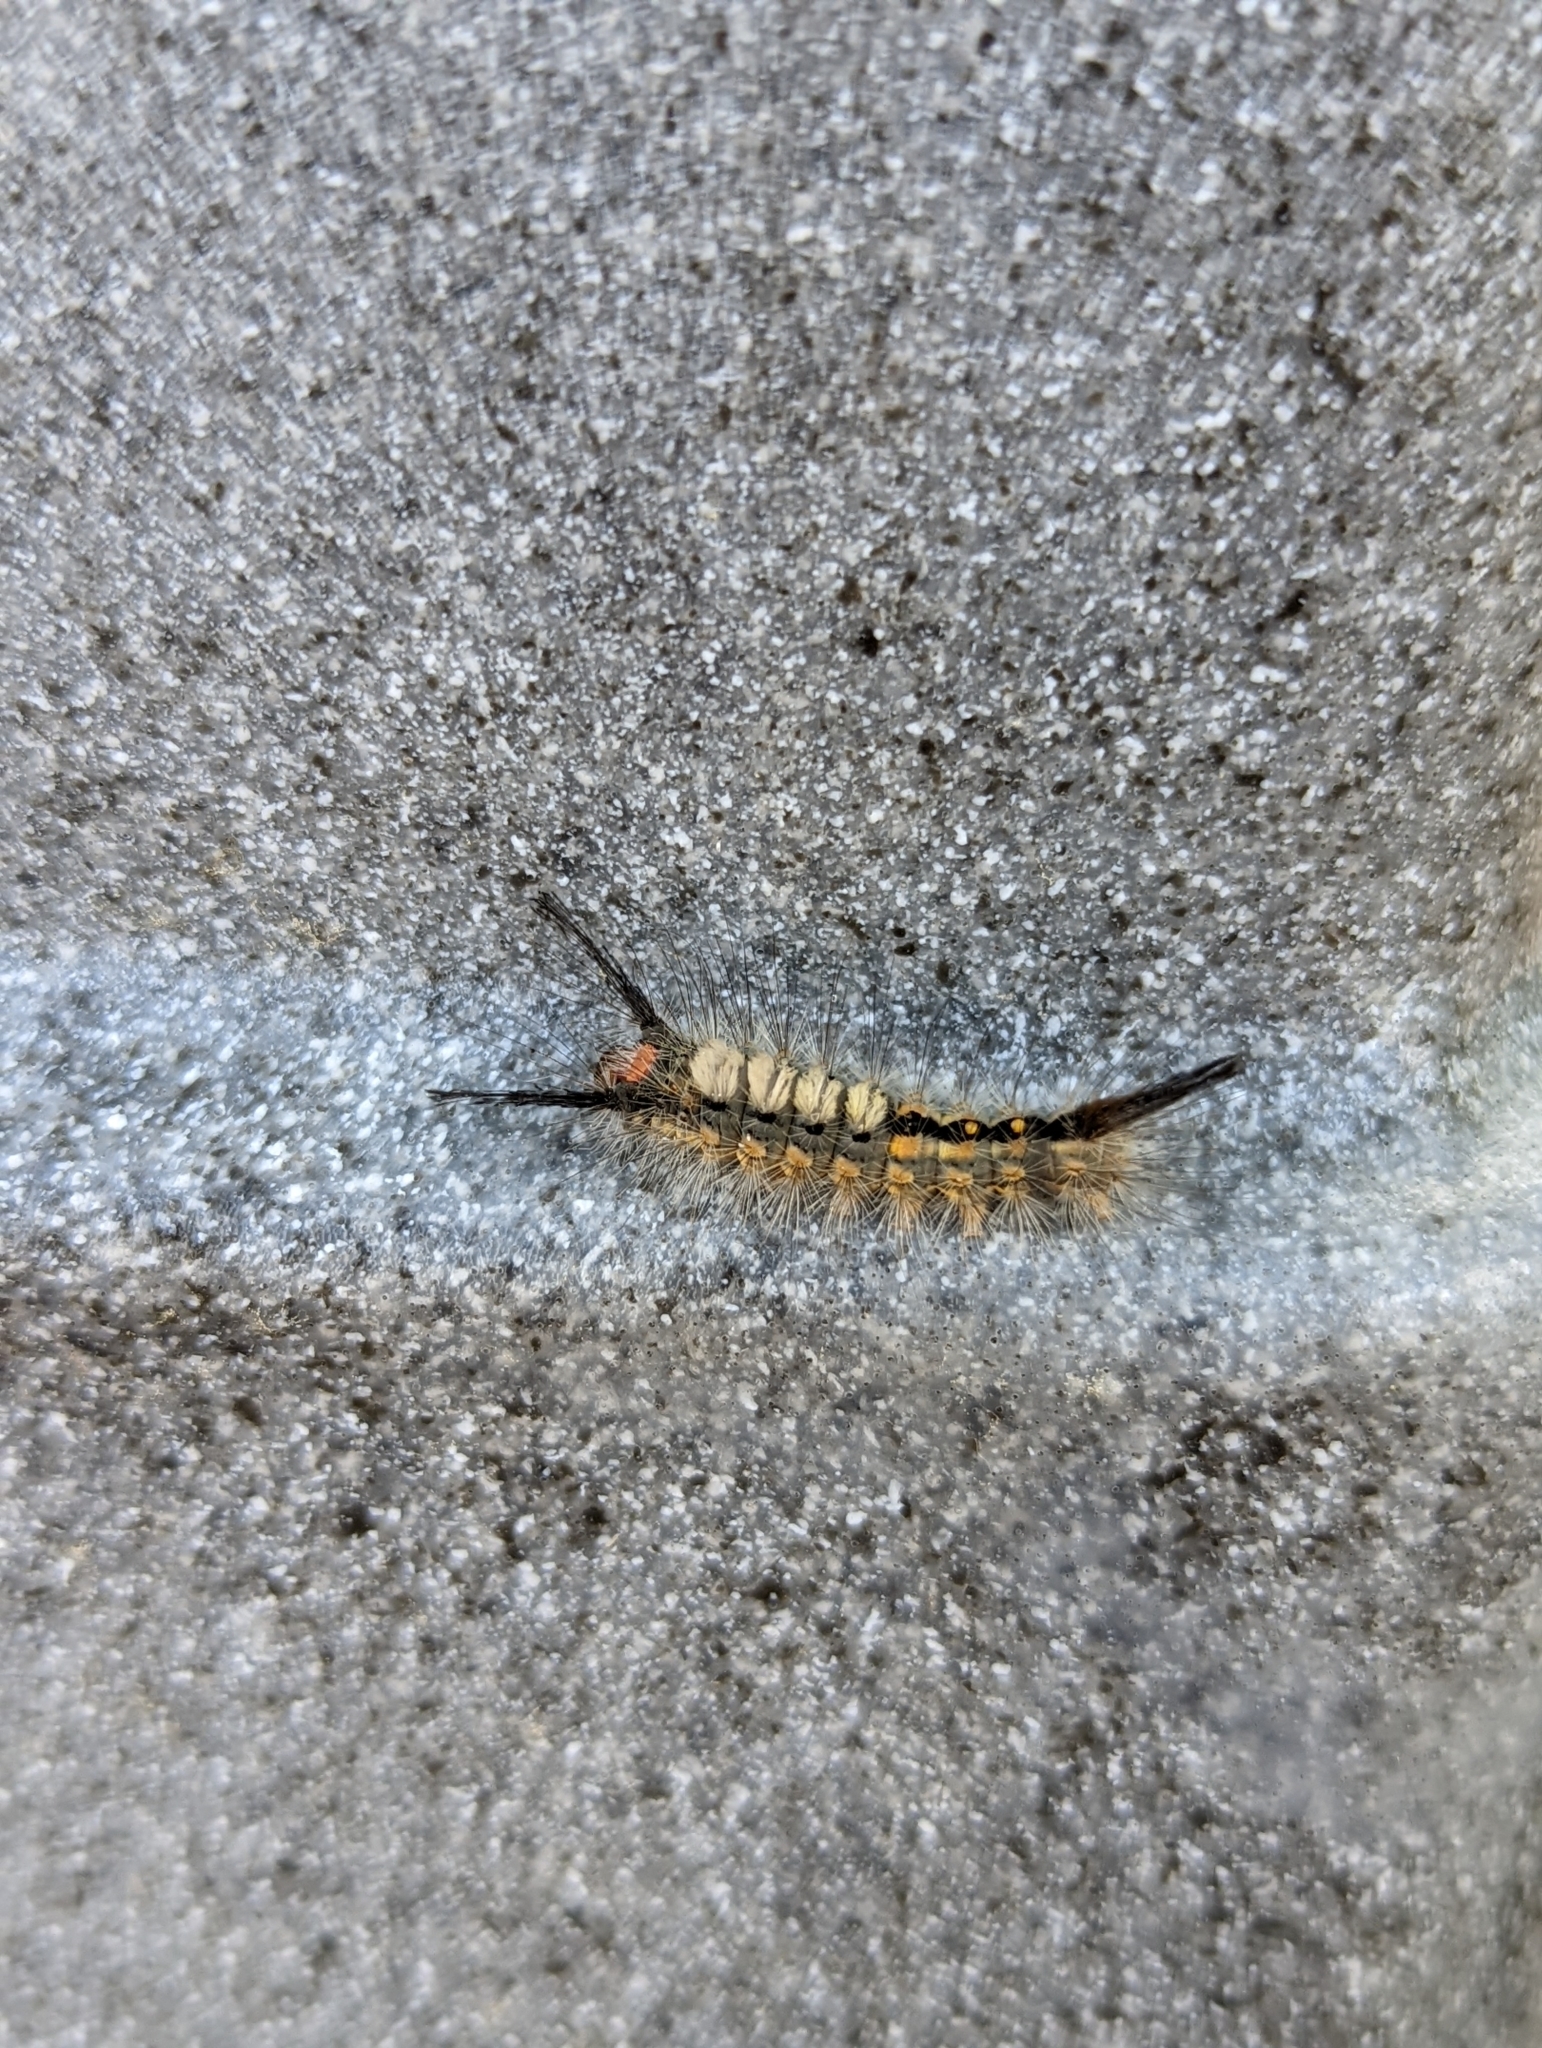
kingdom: Animalia
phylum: Arthropoda
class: Insecta
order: Lepidoptera
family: Erebidae
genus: Orgyia
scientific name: Orgyia detrita
